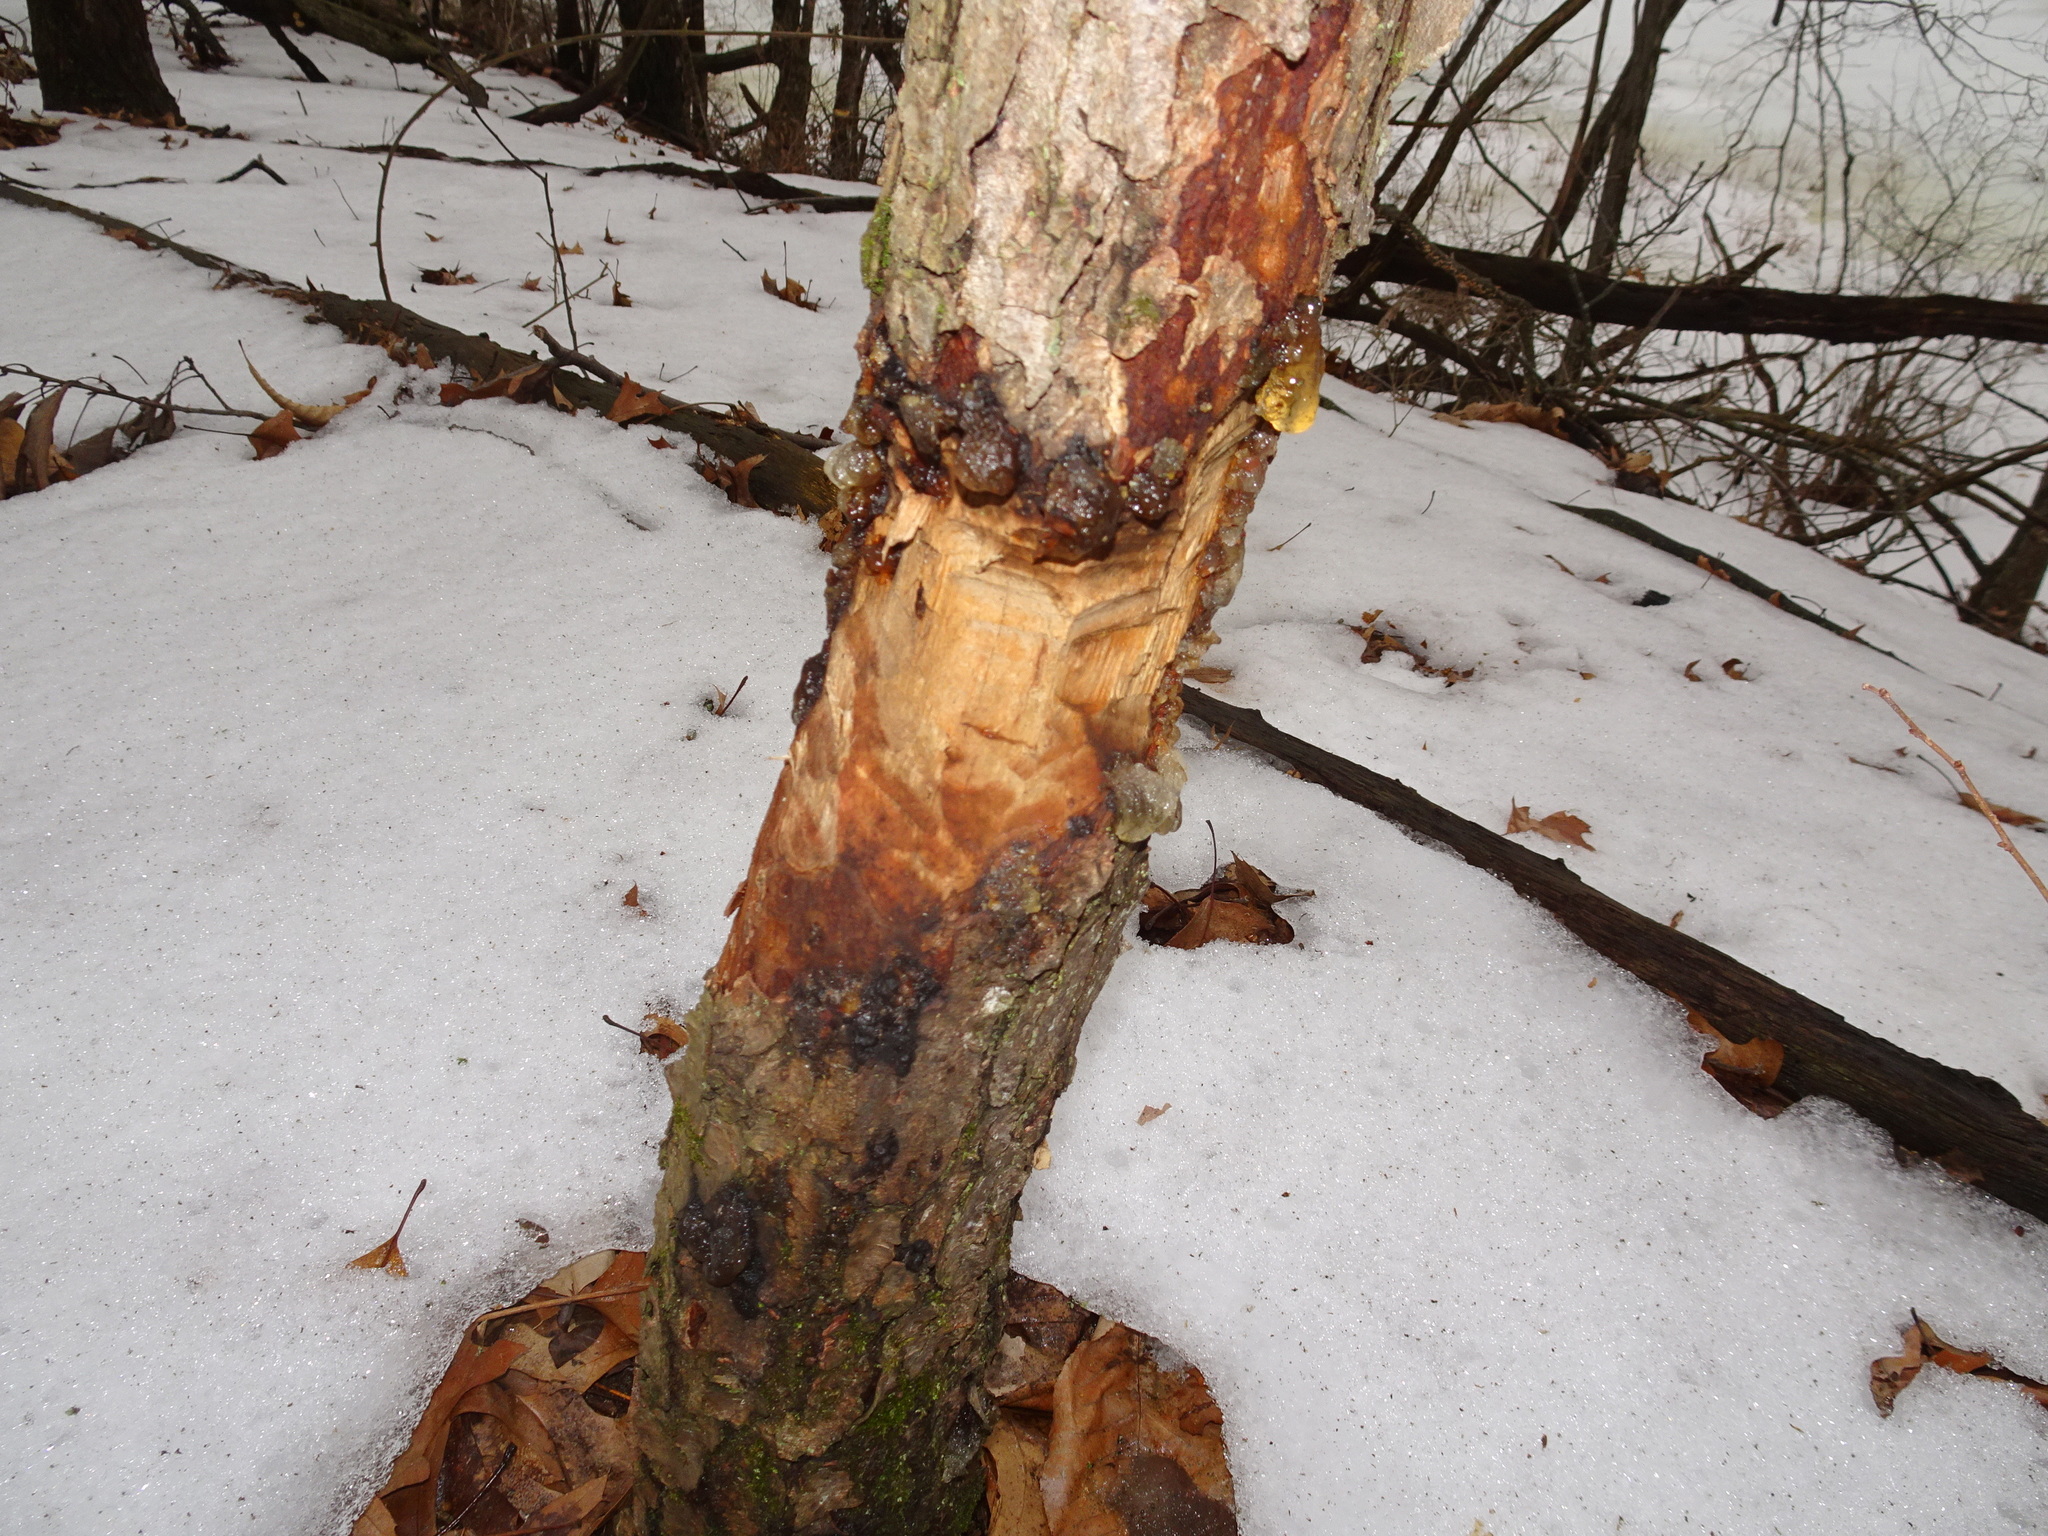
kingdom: Animalia
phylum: Chordata
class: Mammalia
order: Rodentia
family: Castoridae
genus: Castor
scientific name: Castor canadensis
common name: American beaver
